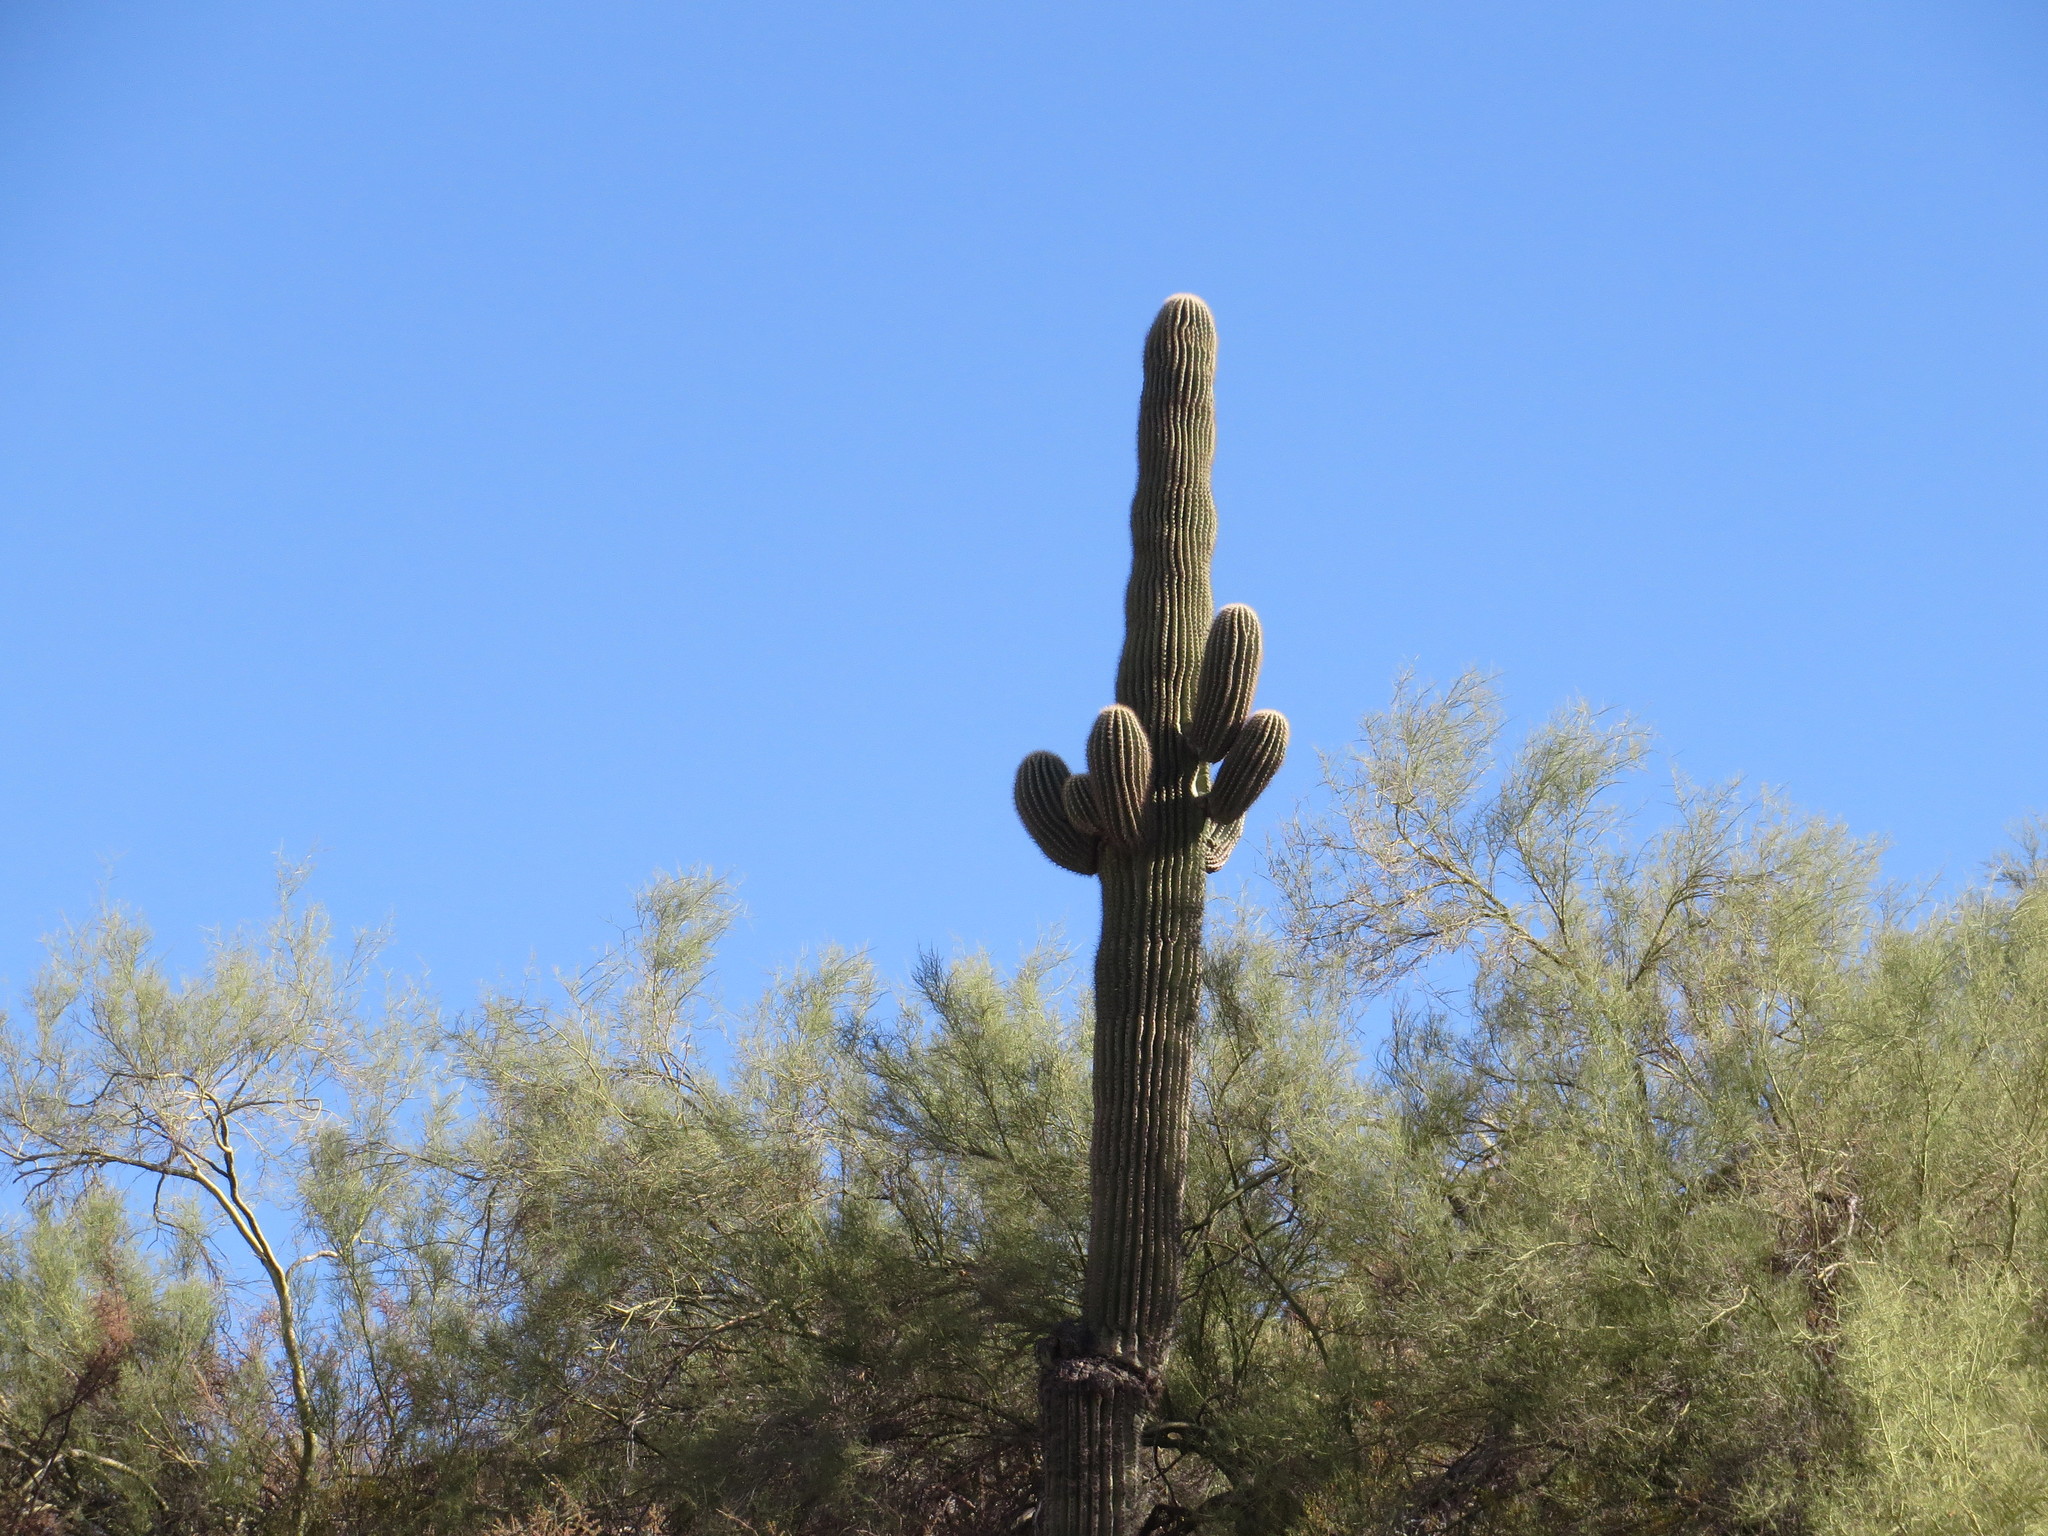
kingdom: Plantae
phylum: Tracheophyta
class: Magnoliopsida
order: Caryophyllales
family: Cactaceae
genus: Carnegiea
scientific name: Carnegiea gigantea
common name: Saguaro
